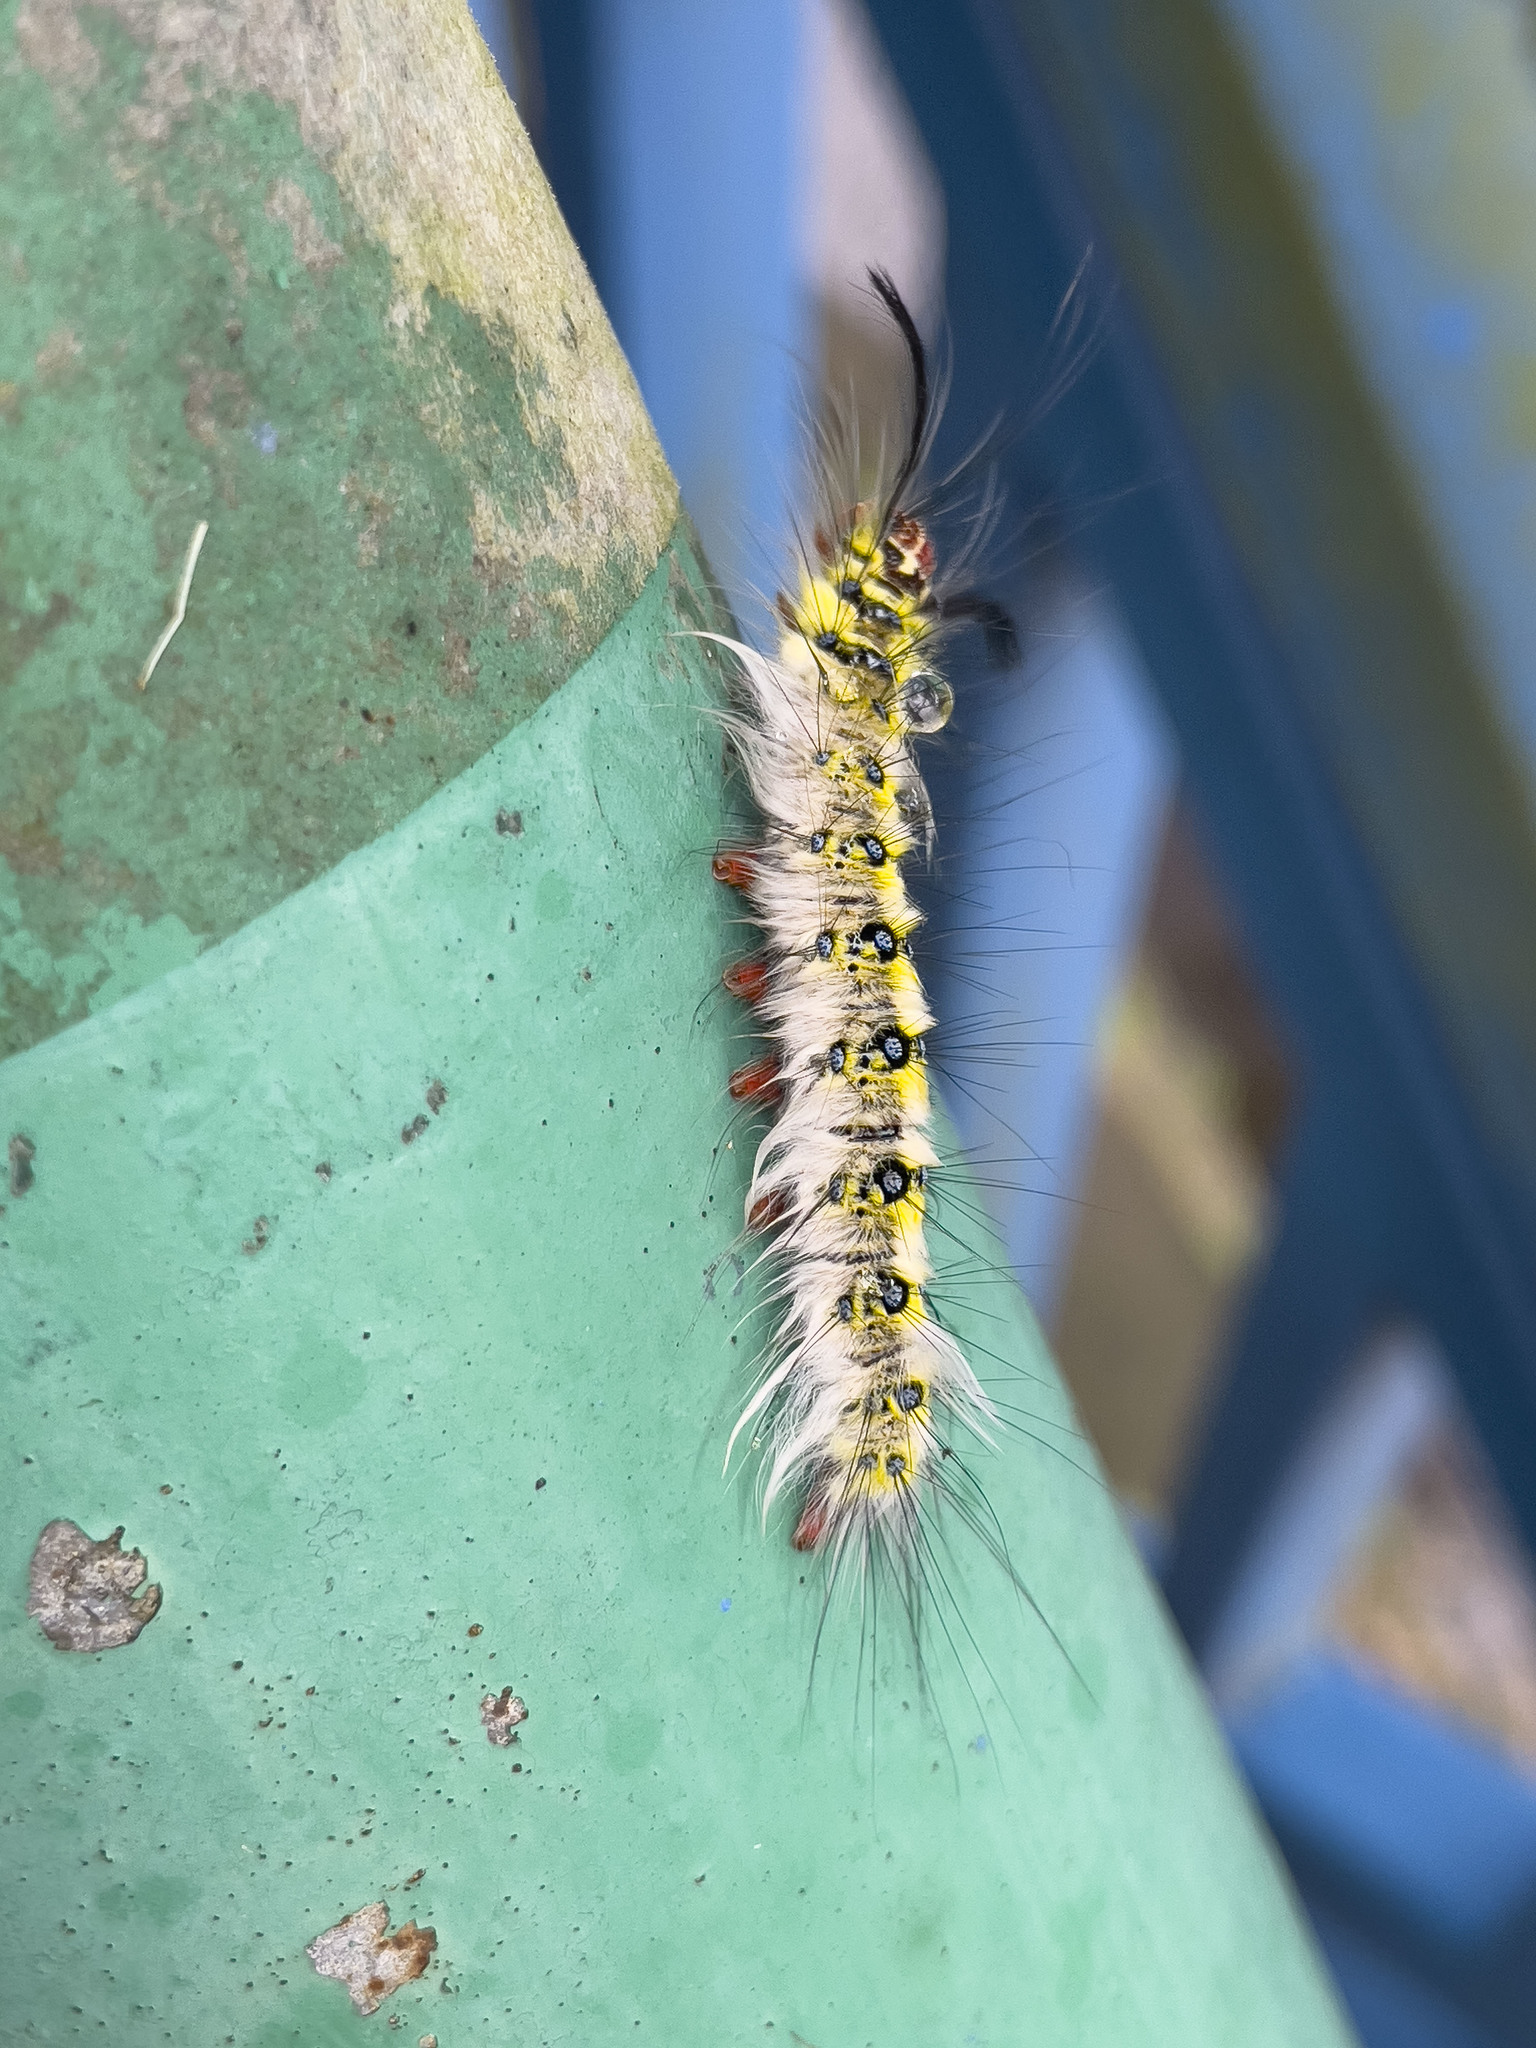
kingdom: Animalia
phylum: Arthropoda
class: Insecta
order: Lepidoptera
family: Lasiocampidae
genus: Trabala
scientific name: Trabala pallida
